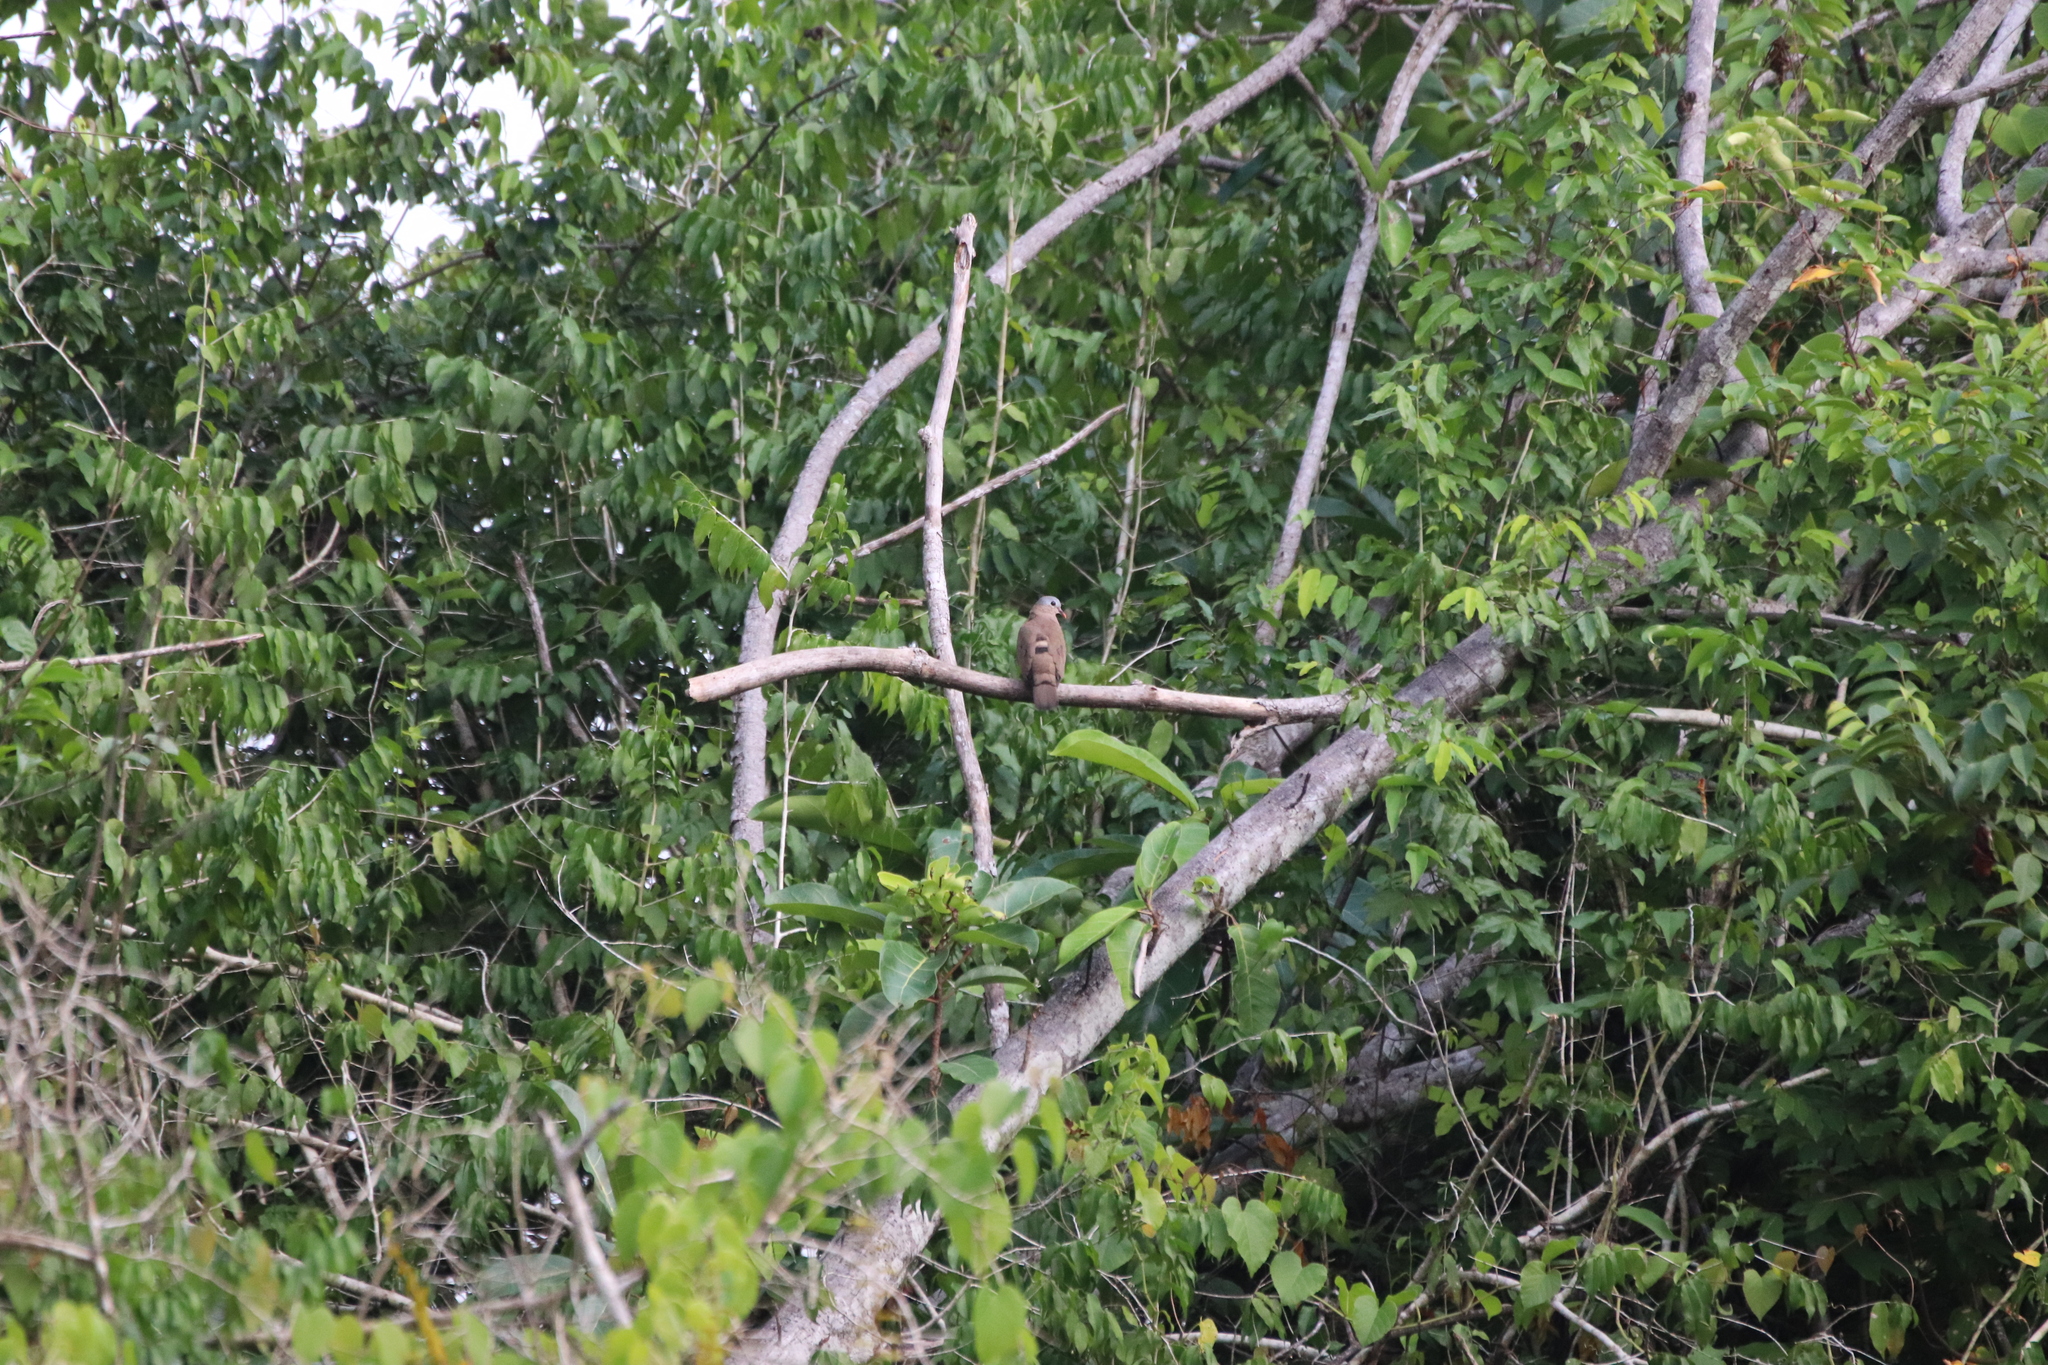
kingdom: Animalia
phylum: Chordata
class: Aves
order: Columbiformes
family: Columbidae
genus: Turtur
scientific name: Turtur afer
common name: Blue-spotted wood dove
